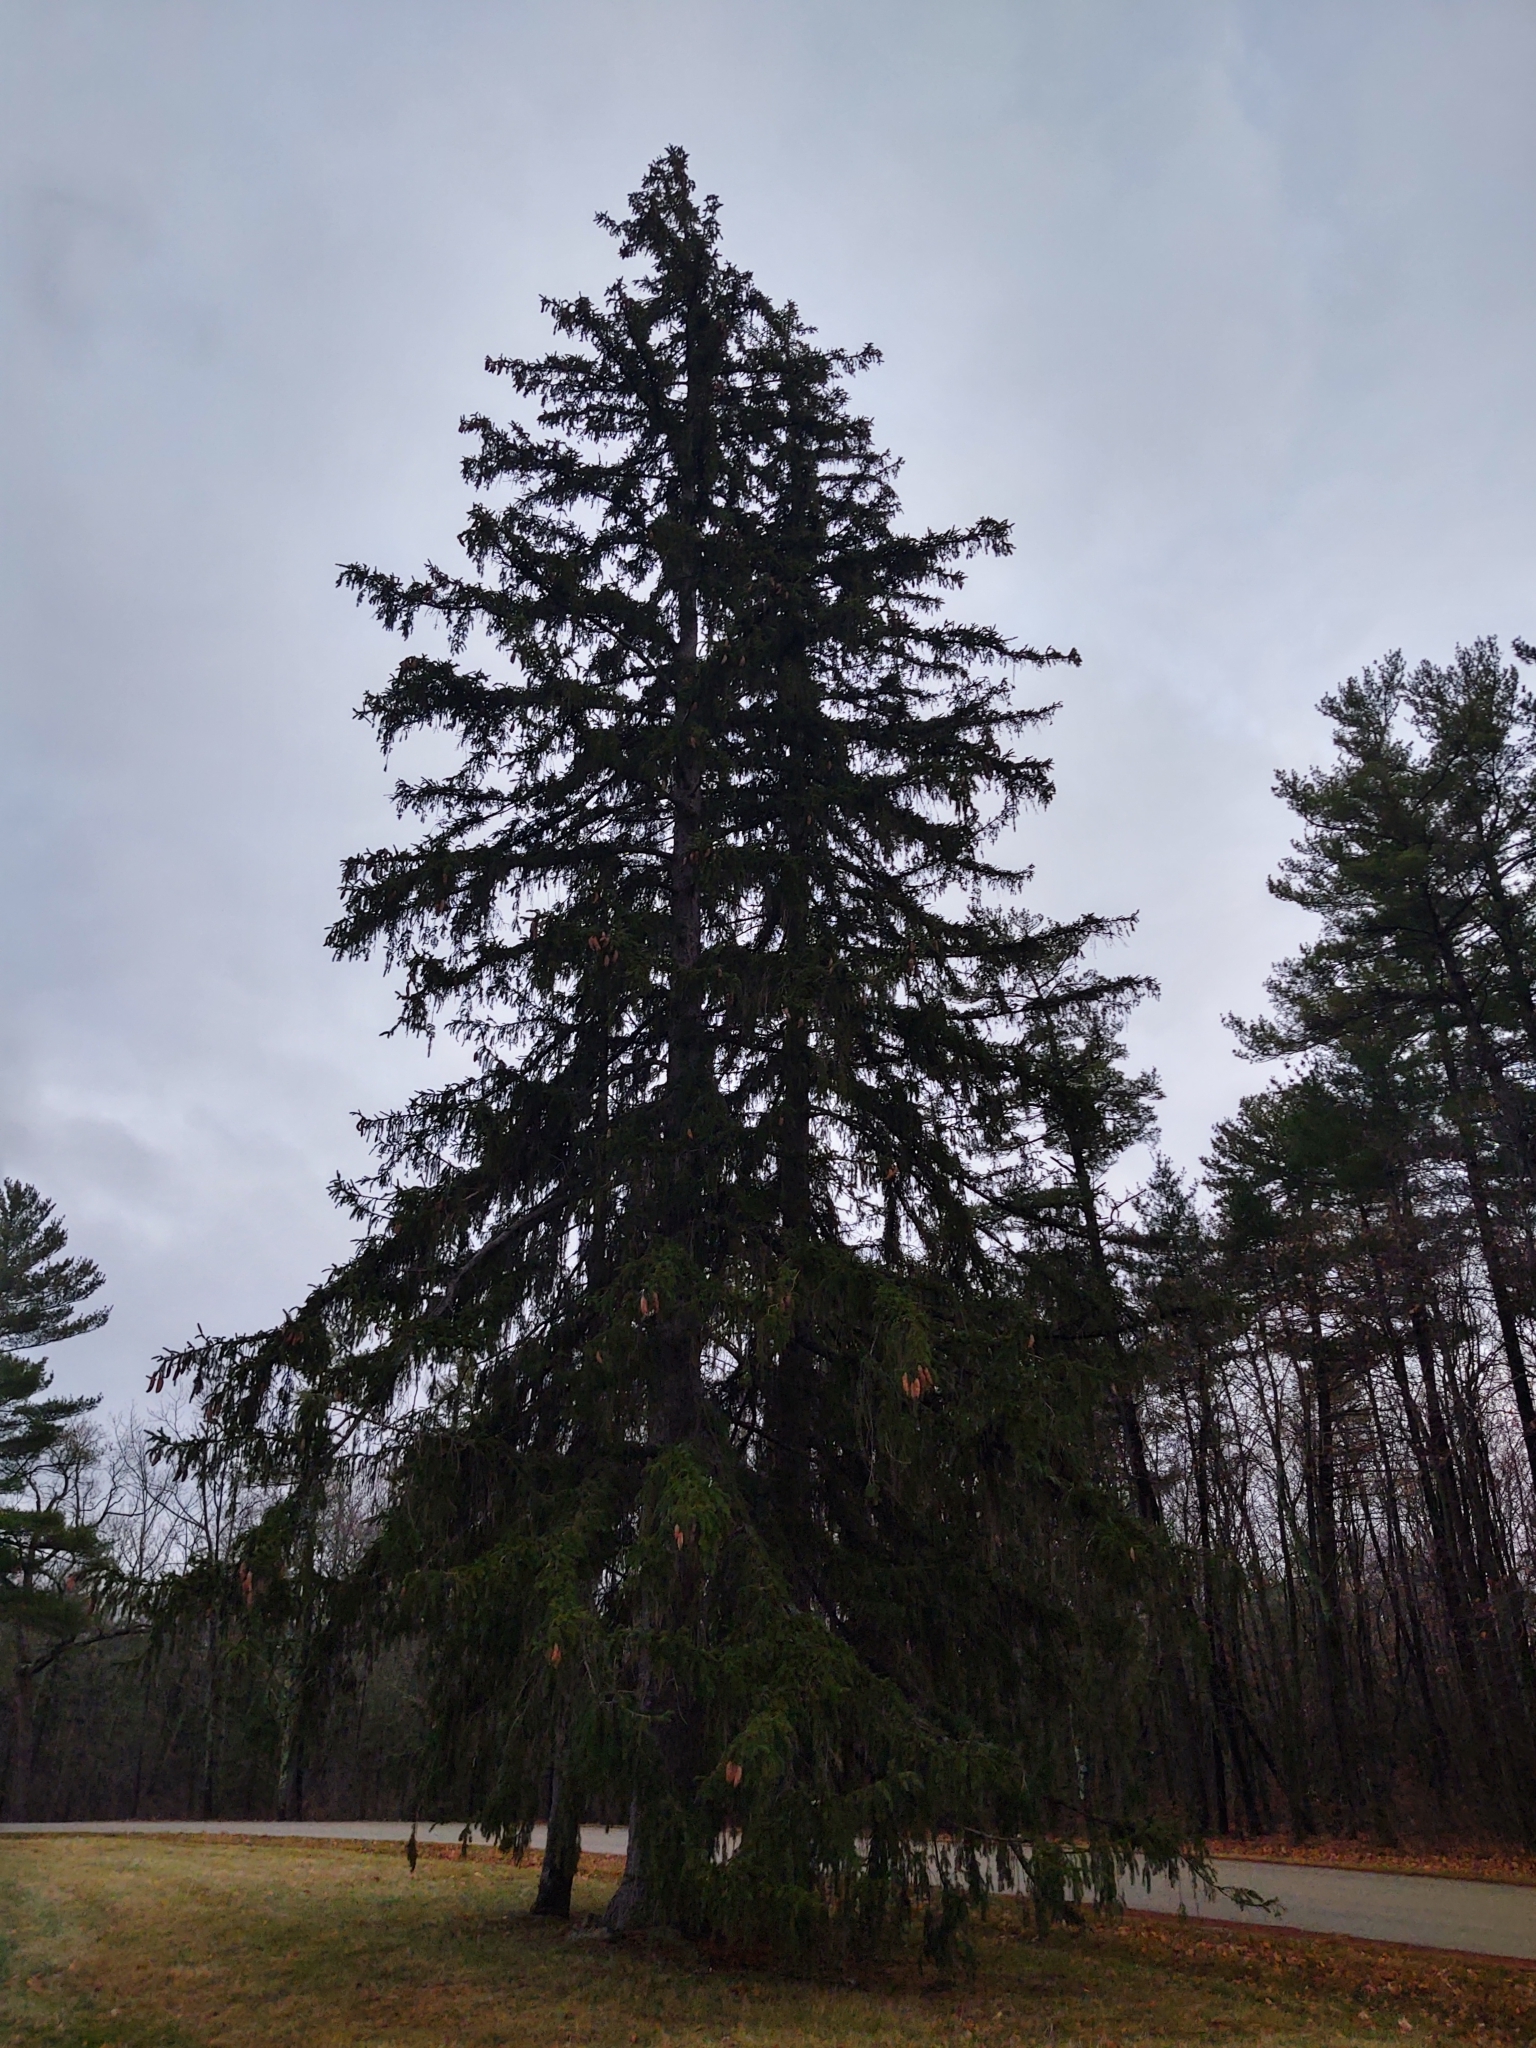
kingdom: Plantae
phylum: Tracheophyta
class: Pinopsida
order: Pinales
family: Pinaceae
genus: Picea
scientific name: Picea abies
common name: Norway spruce
